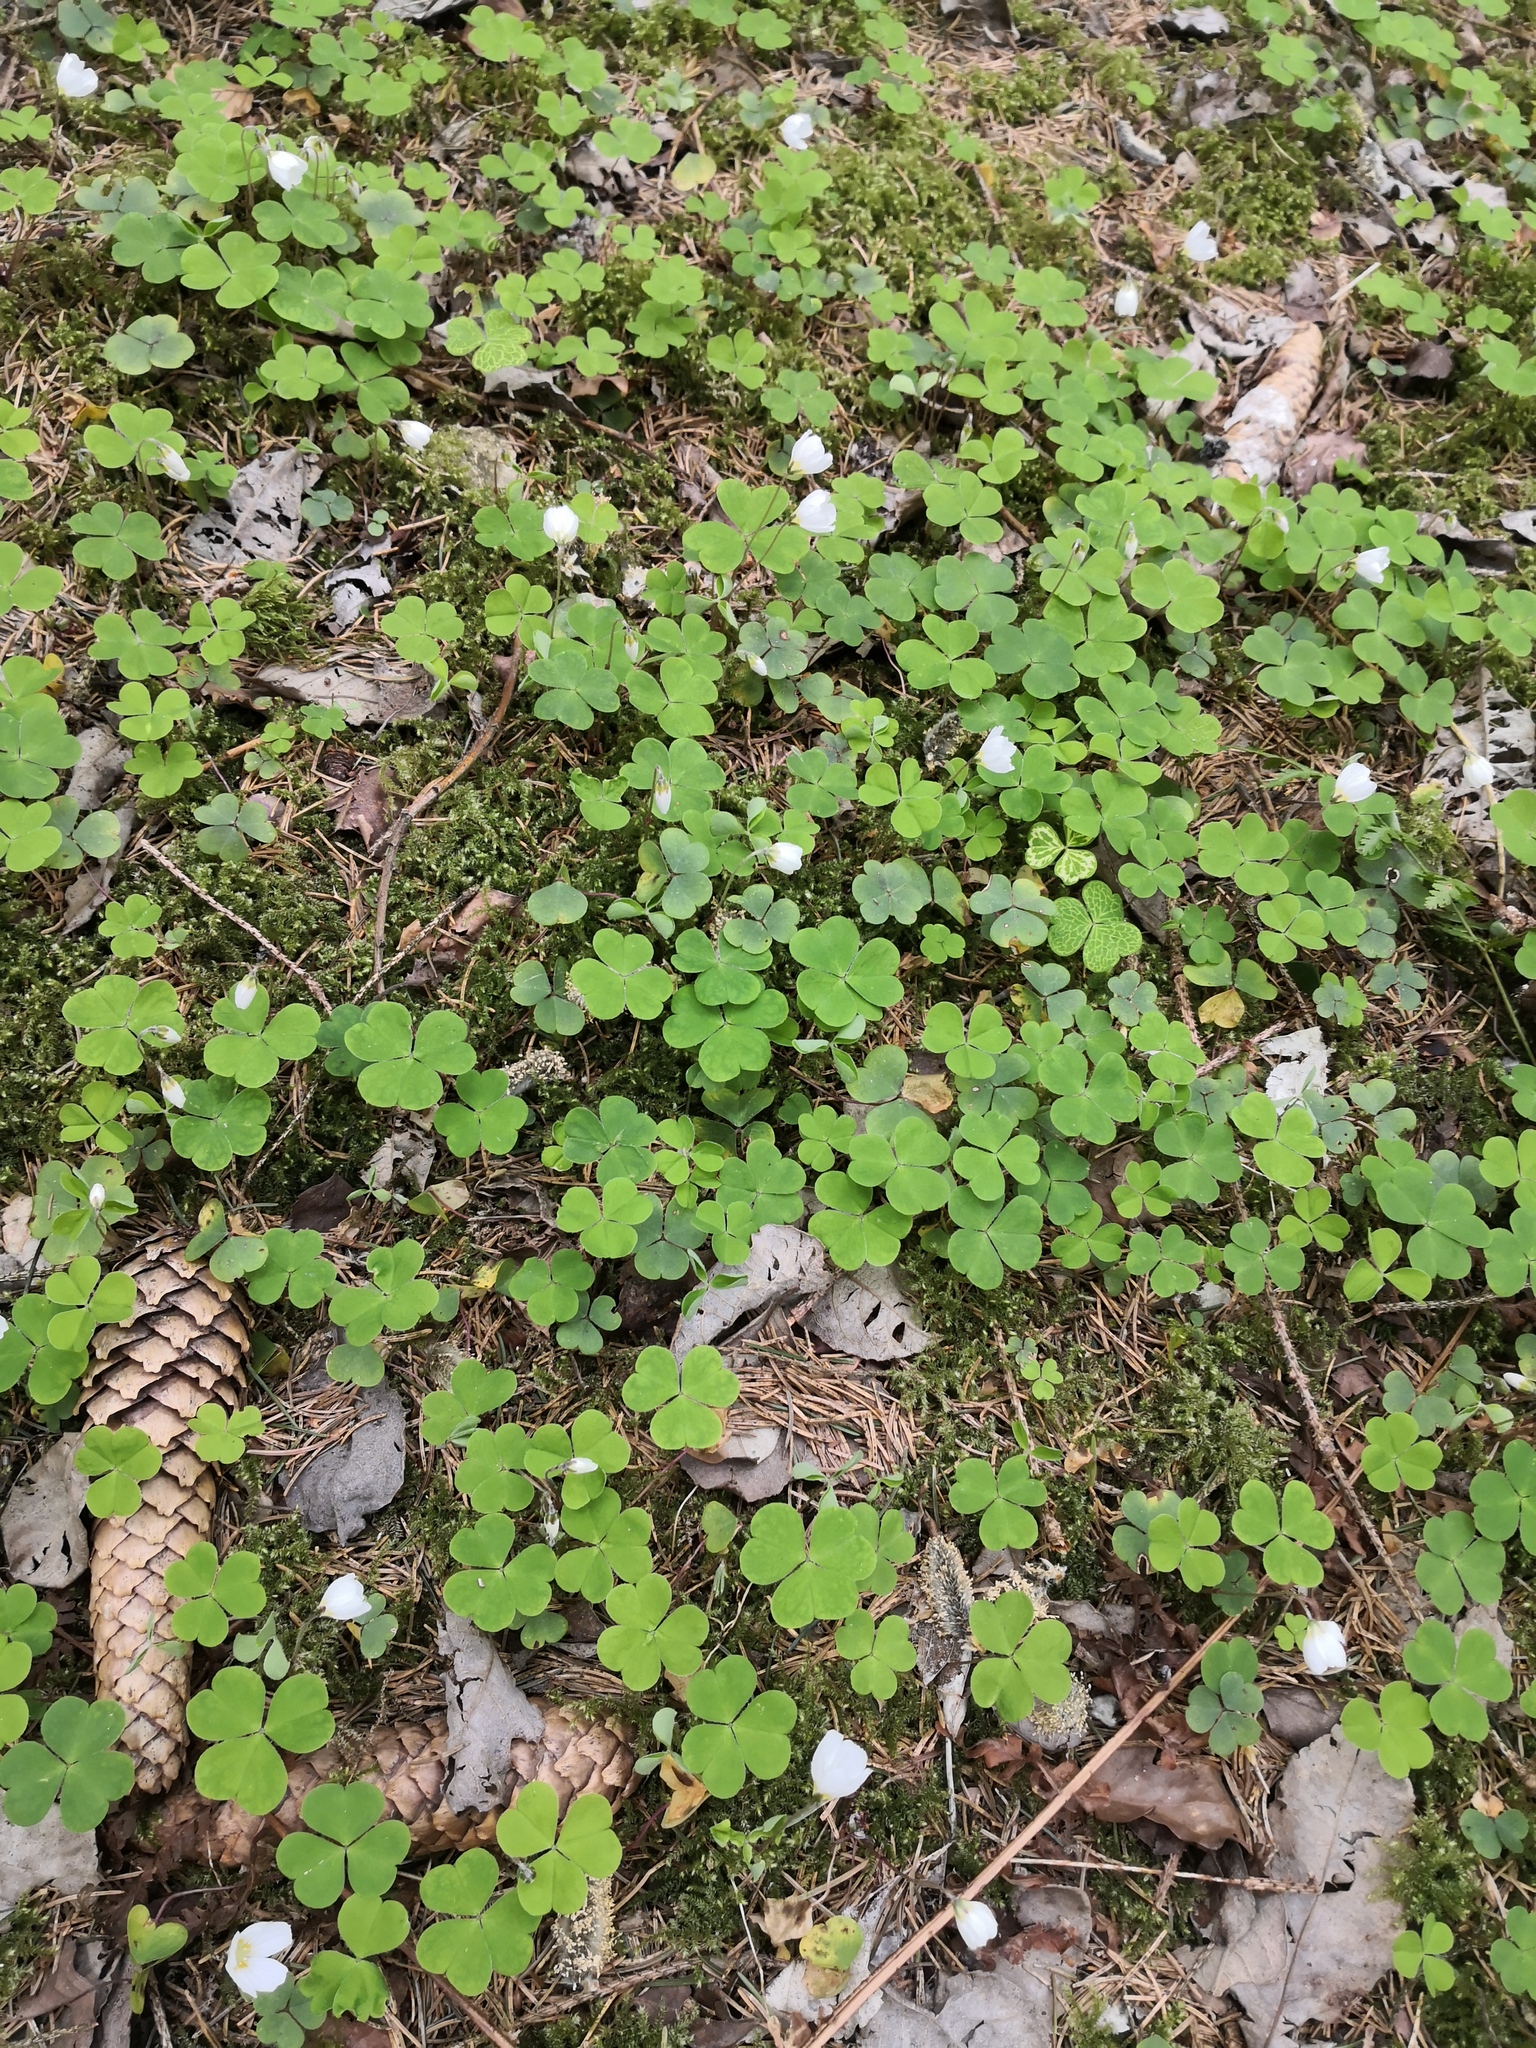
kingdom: Plantae
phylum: Tracheophyta
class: Magnoliopsida
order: Oxalidales
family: Oxalidaceae
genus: Oxalis
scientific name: Oxalis acetosella
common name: Wood-sorrel
